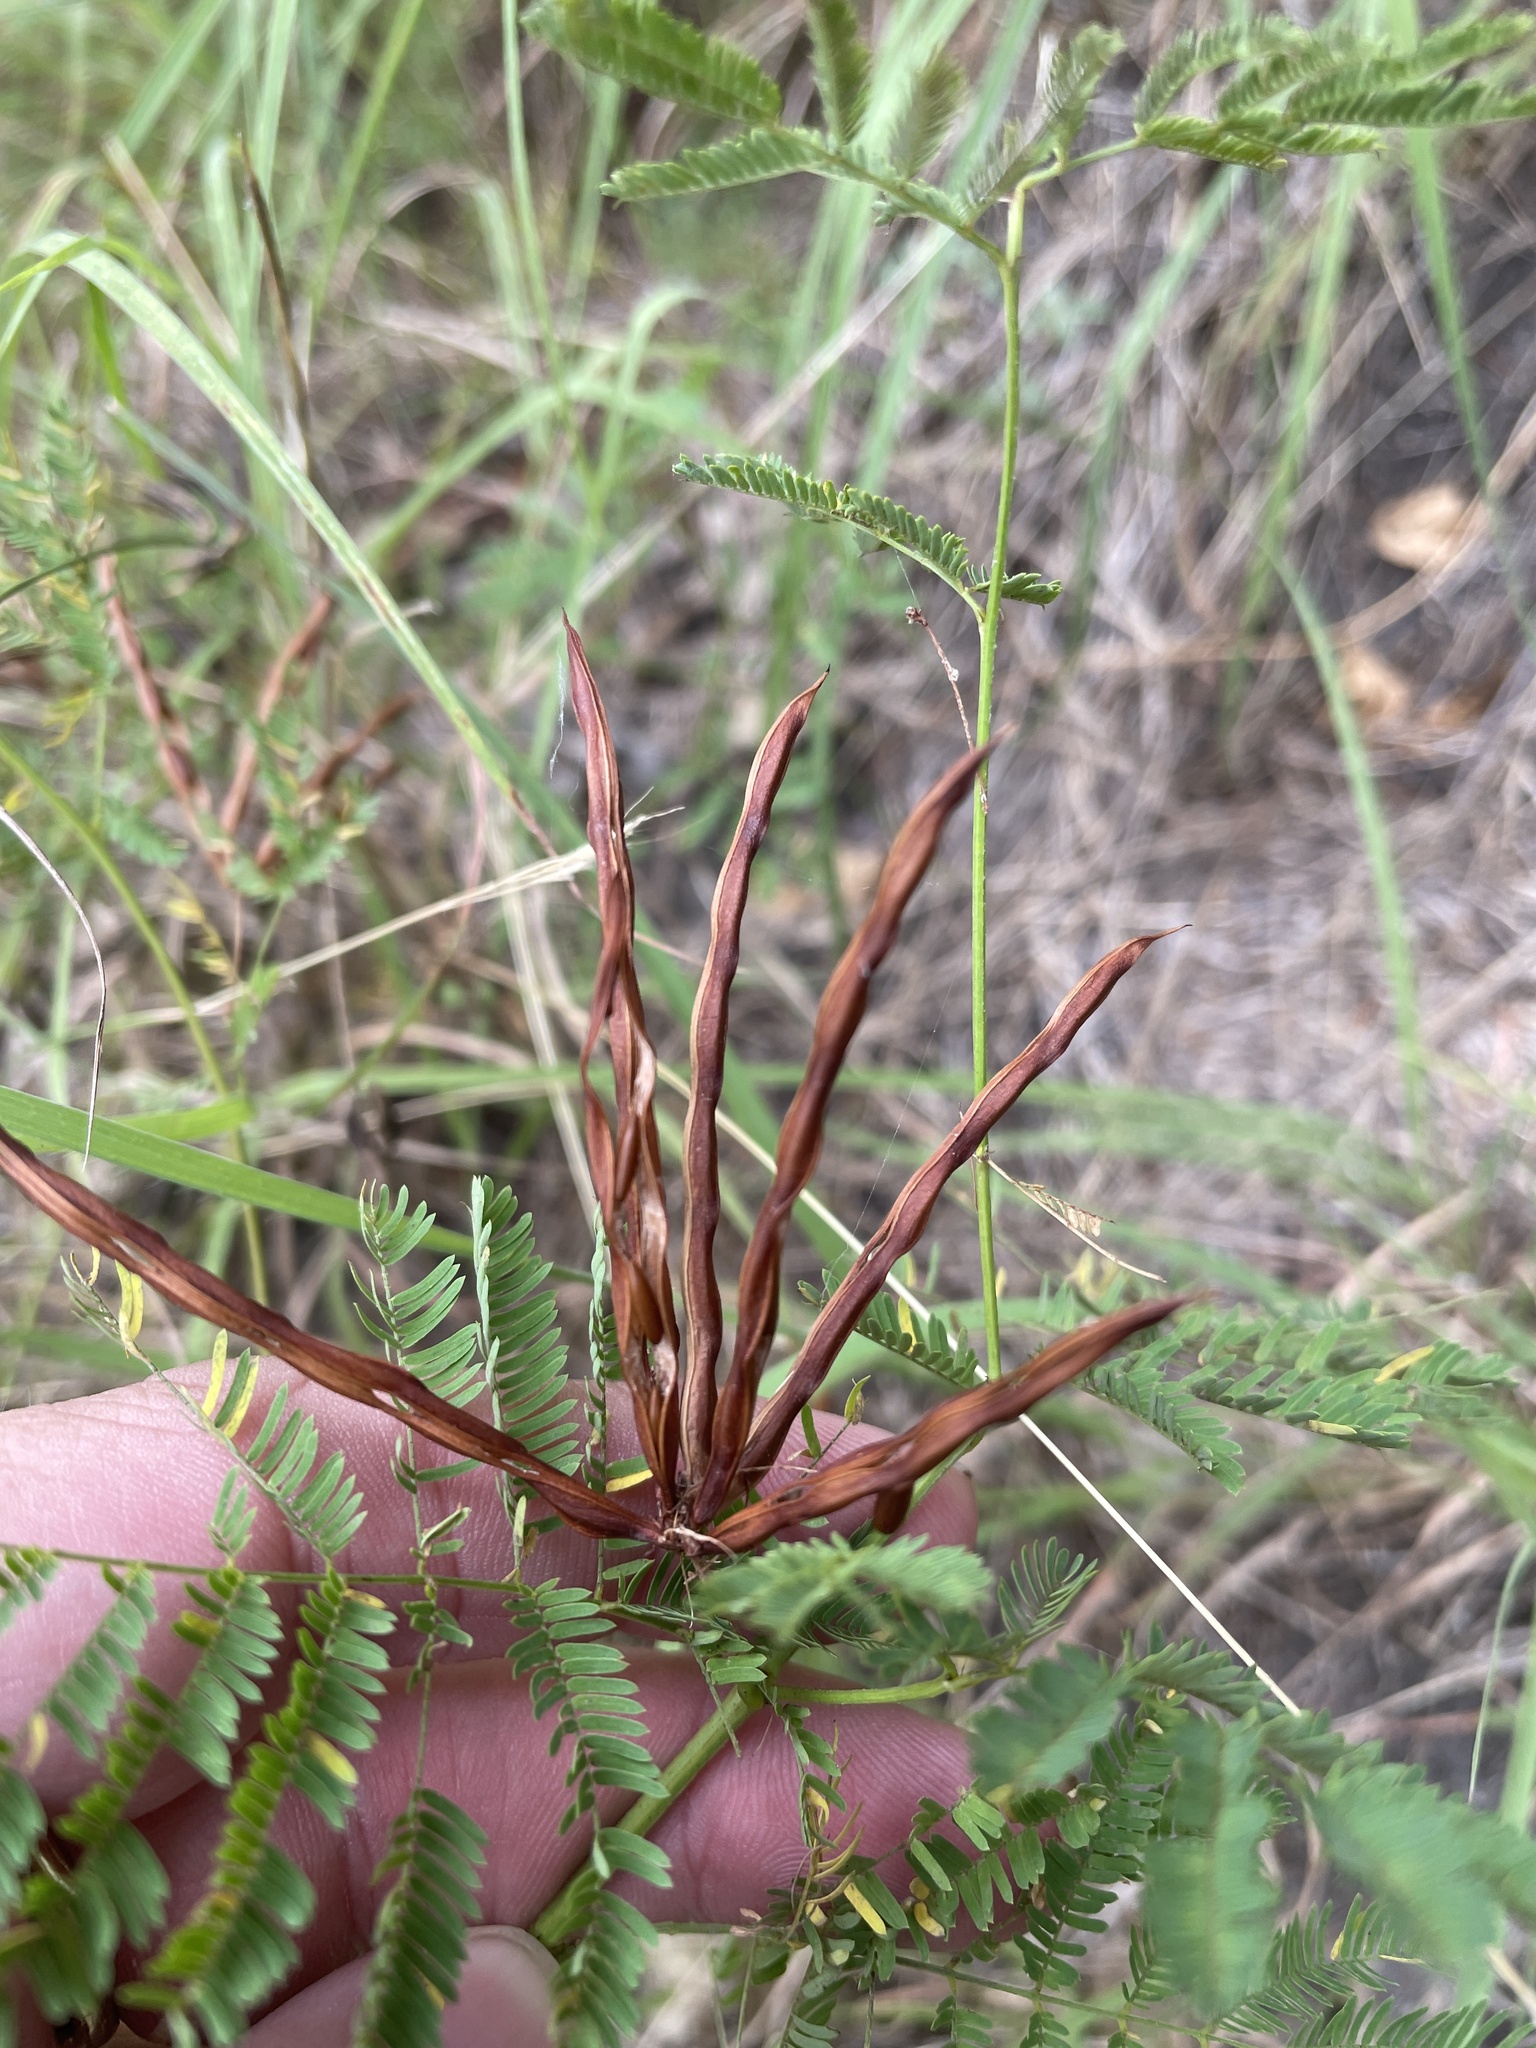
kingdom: Plantae
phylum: Tracheophyta
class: Magnoliopsida
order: Fabales
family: Fabaceae
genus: Desmanthus
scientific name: Desmanthus leptolobus
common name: Prairie-mimosa
